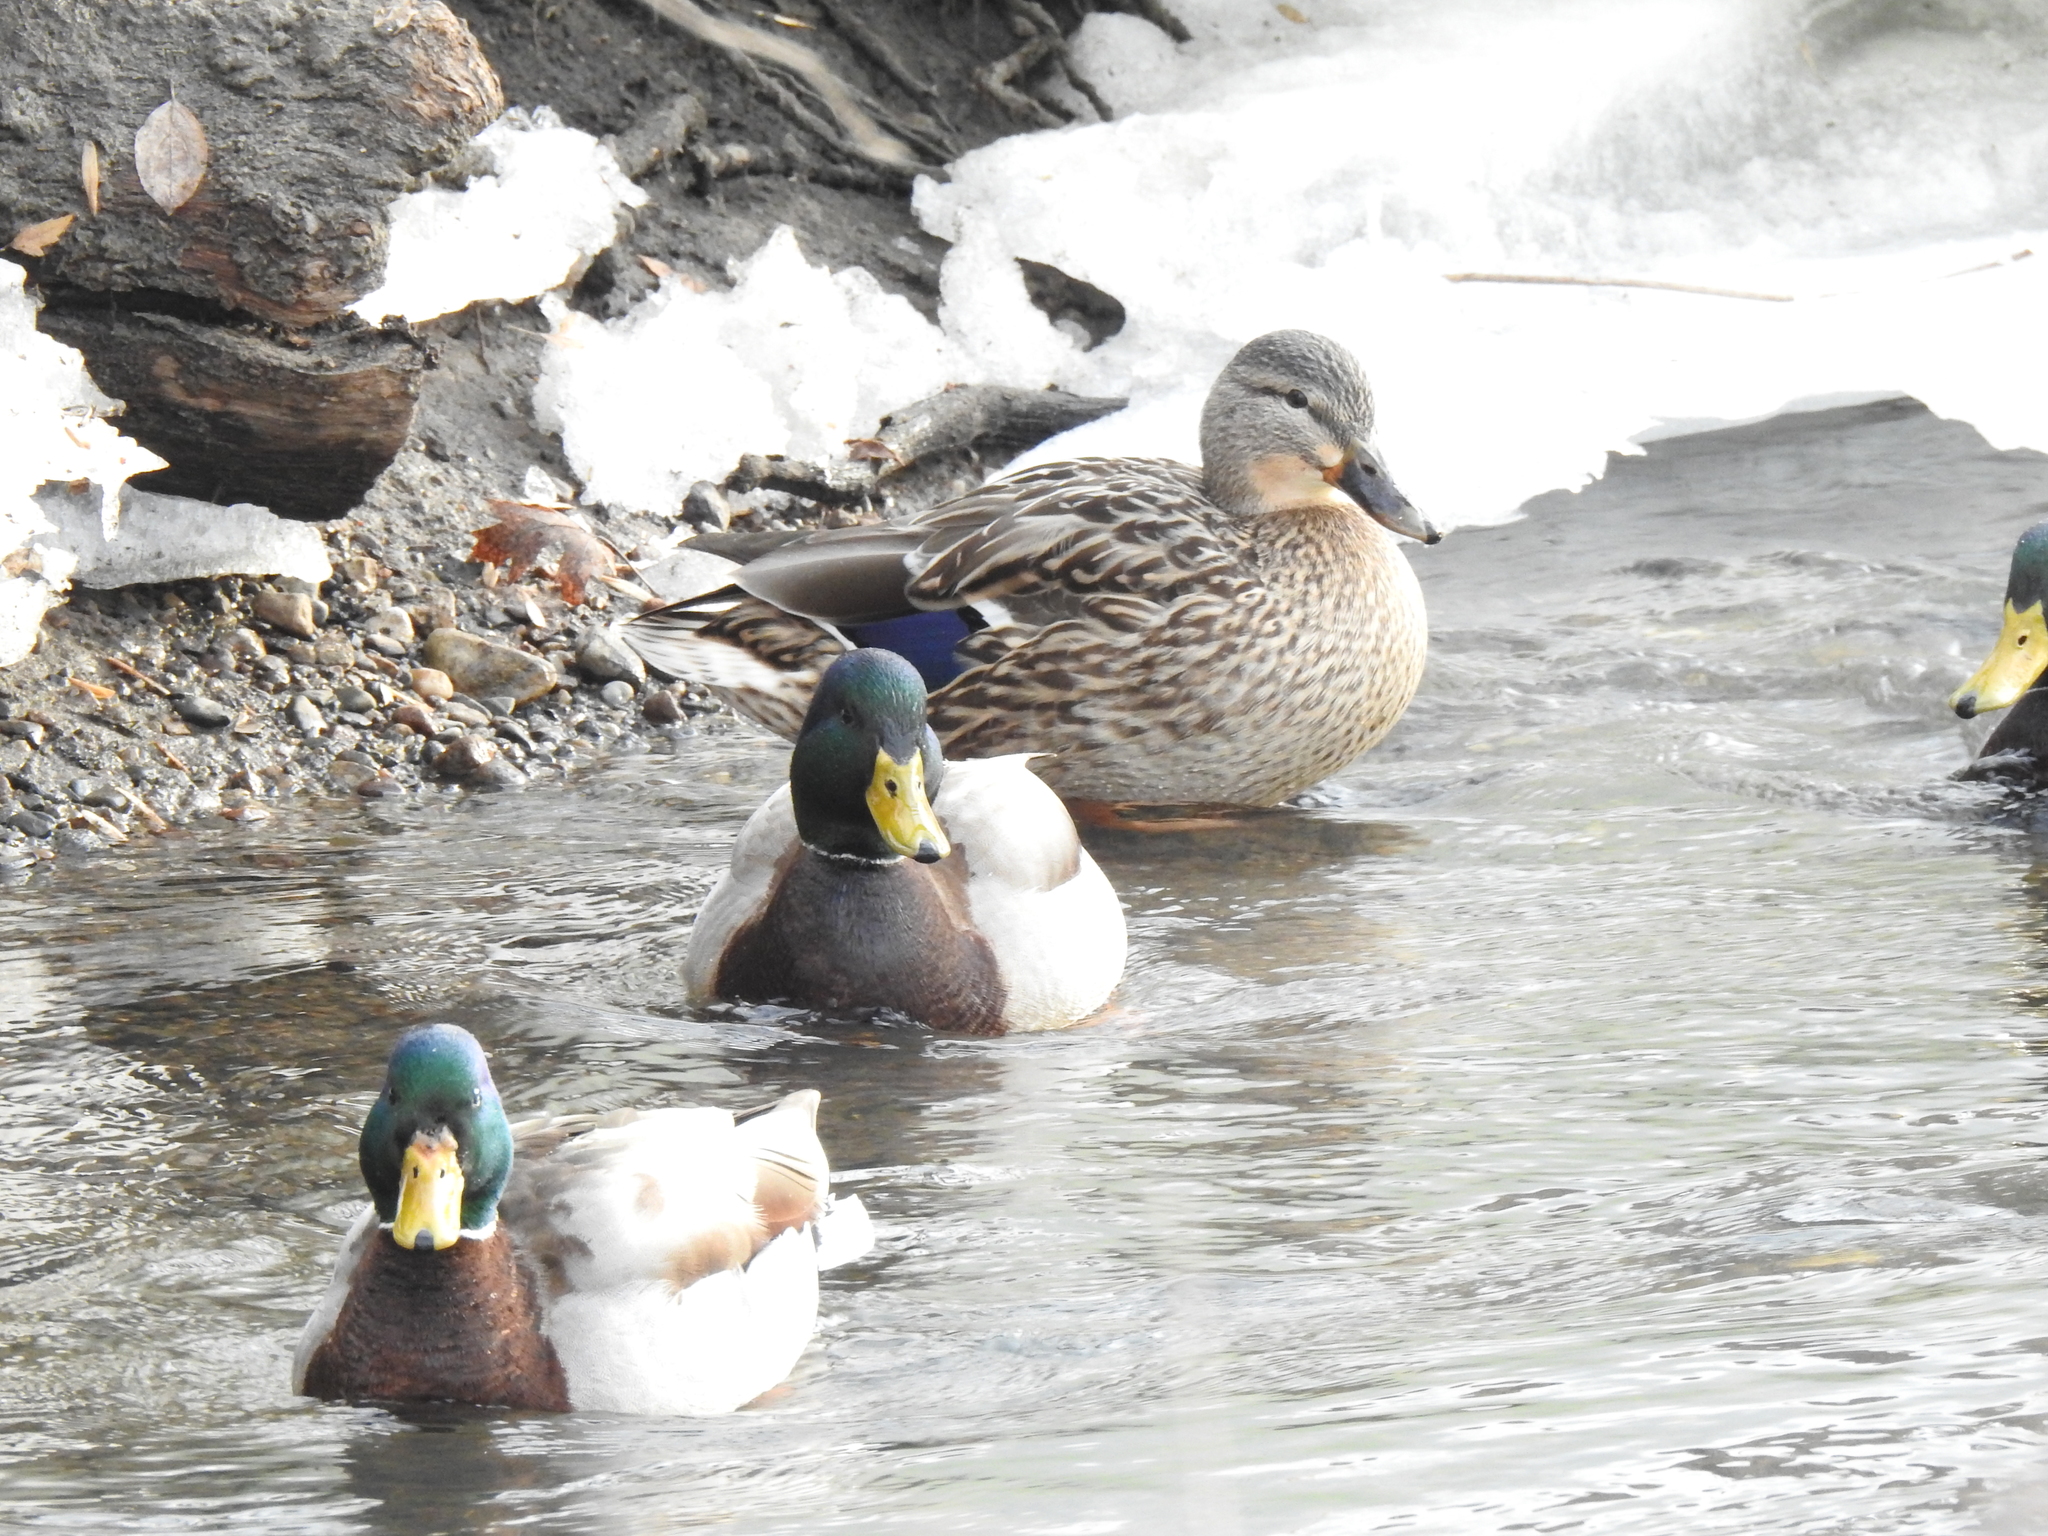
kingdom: Animalia
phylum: Chordata
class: Aves
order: Anseriformes
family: Anatidae
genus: Anas
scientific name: Anas platyrhynchos
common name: Mallard
